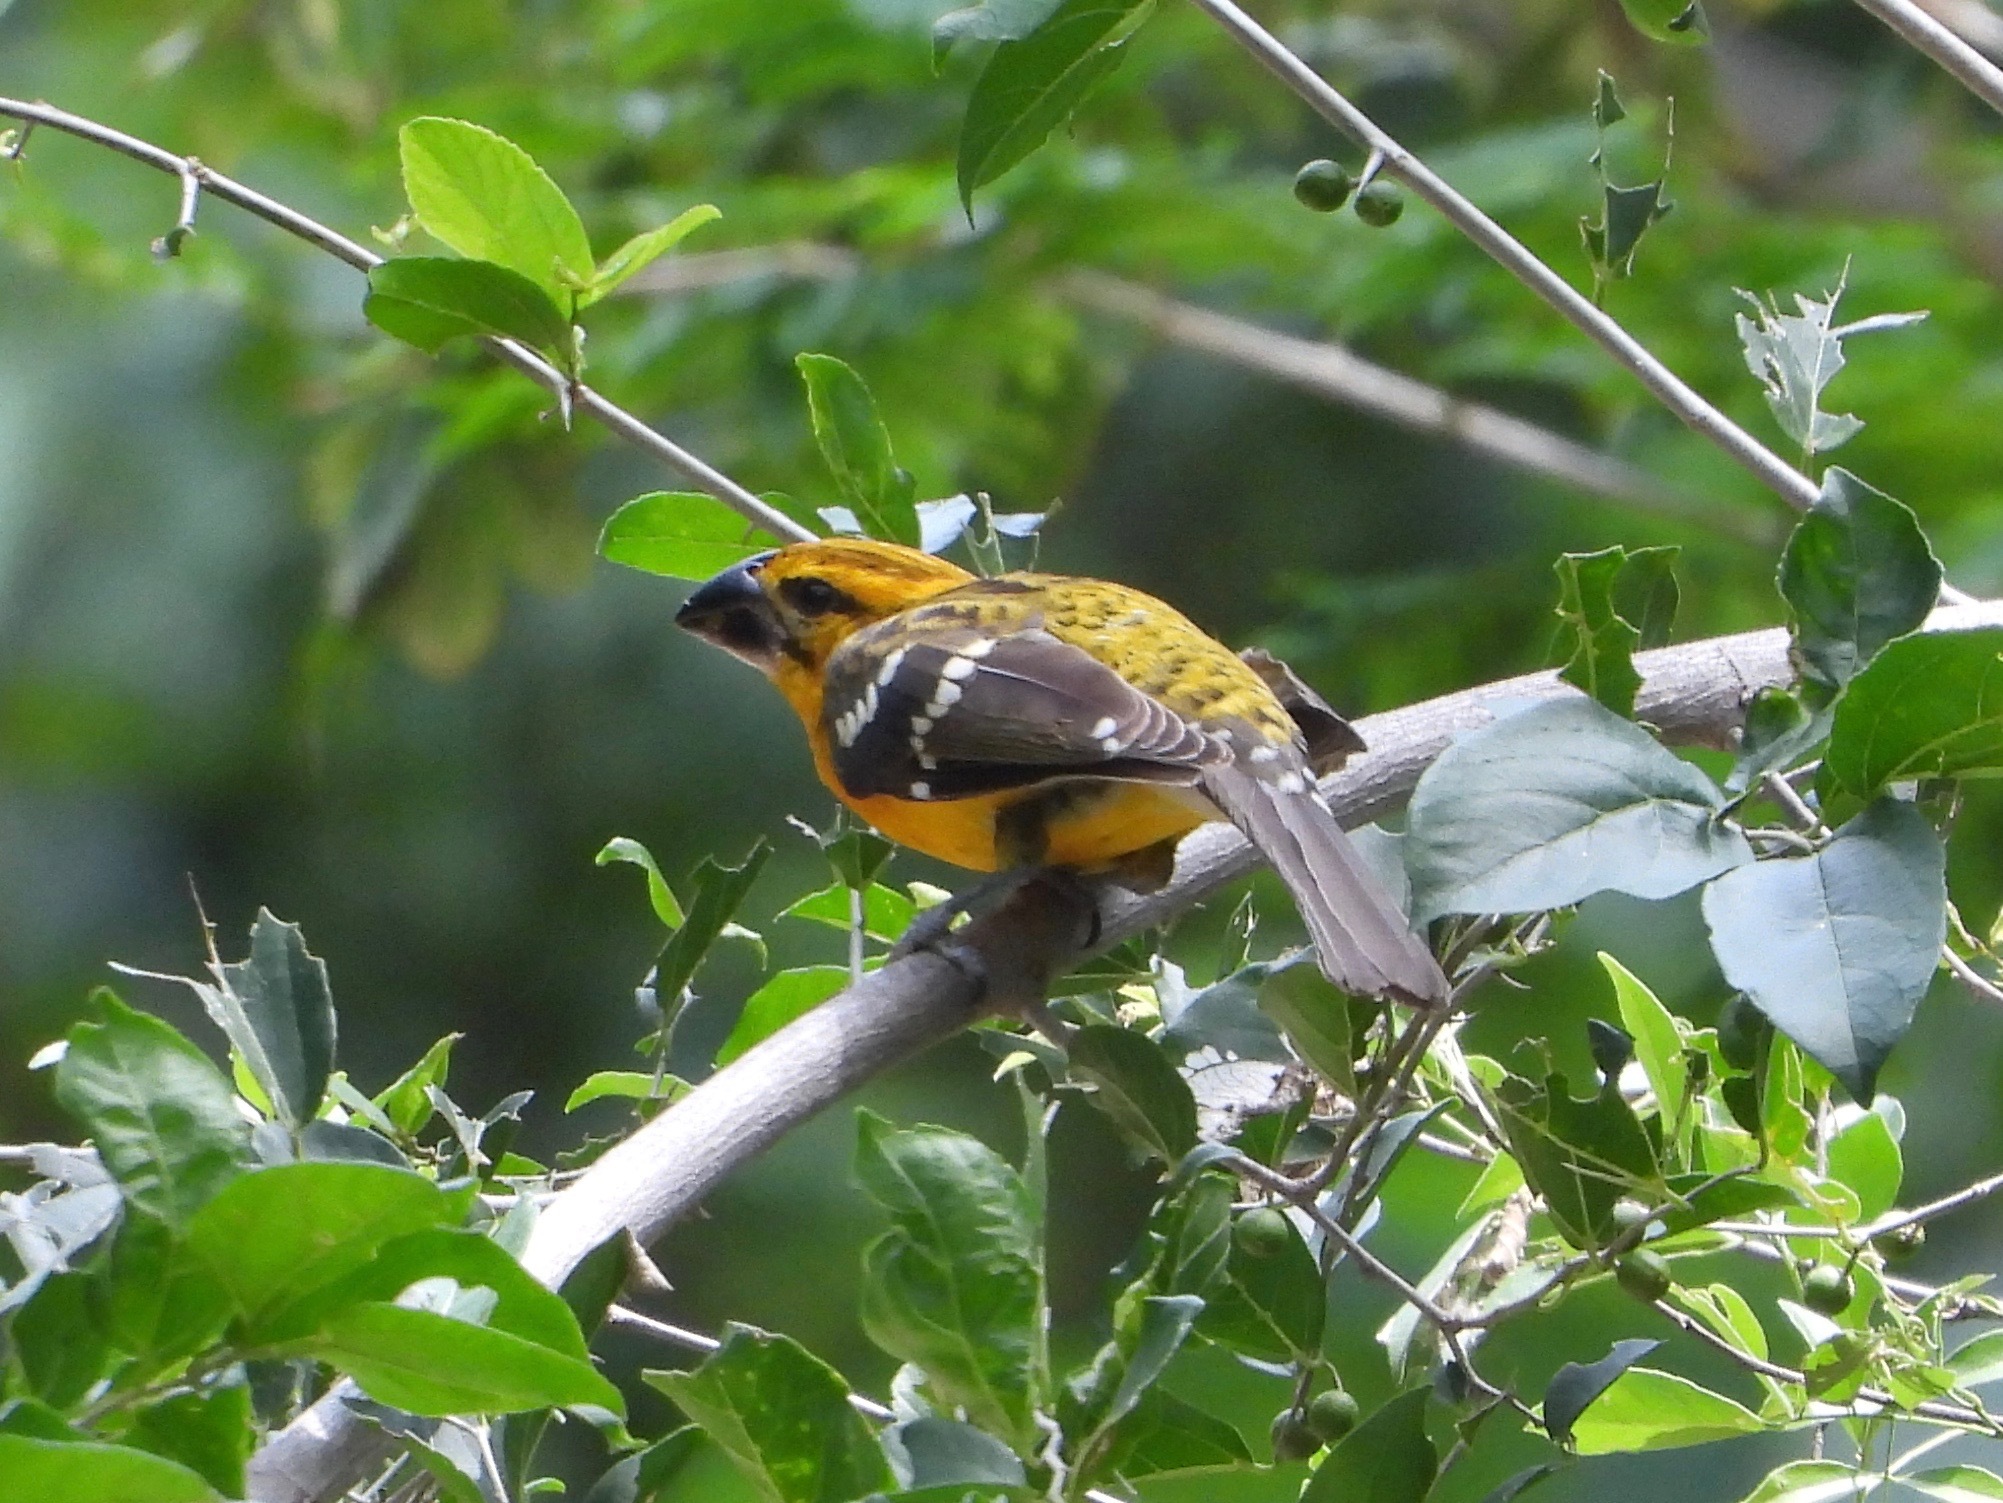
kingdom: Animalia
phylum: Chordata
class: Aves
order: Passeriformes
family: Cardinalidae
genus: Pheucticus
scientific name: Pheucticus chrysopeplus
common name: Yellow grosbeak
